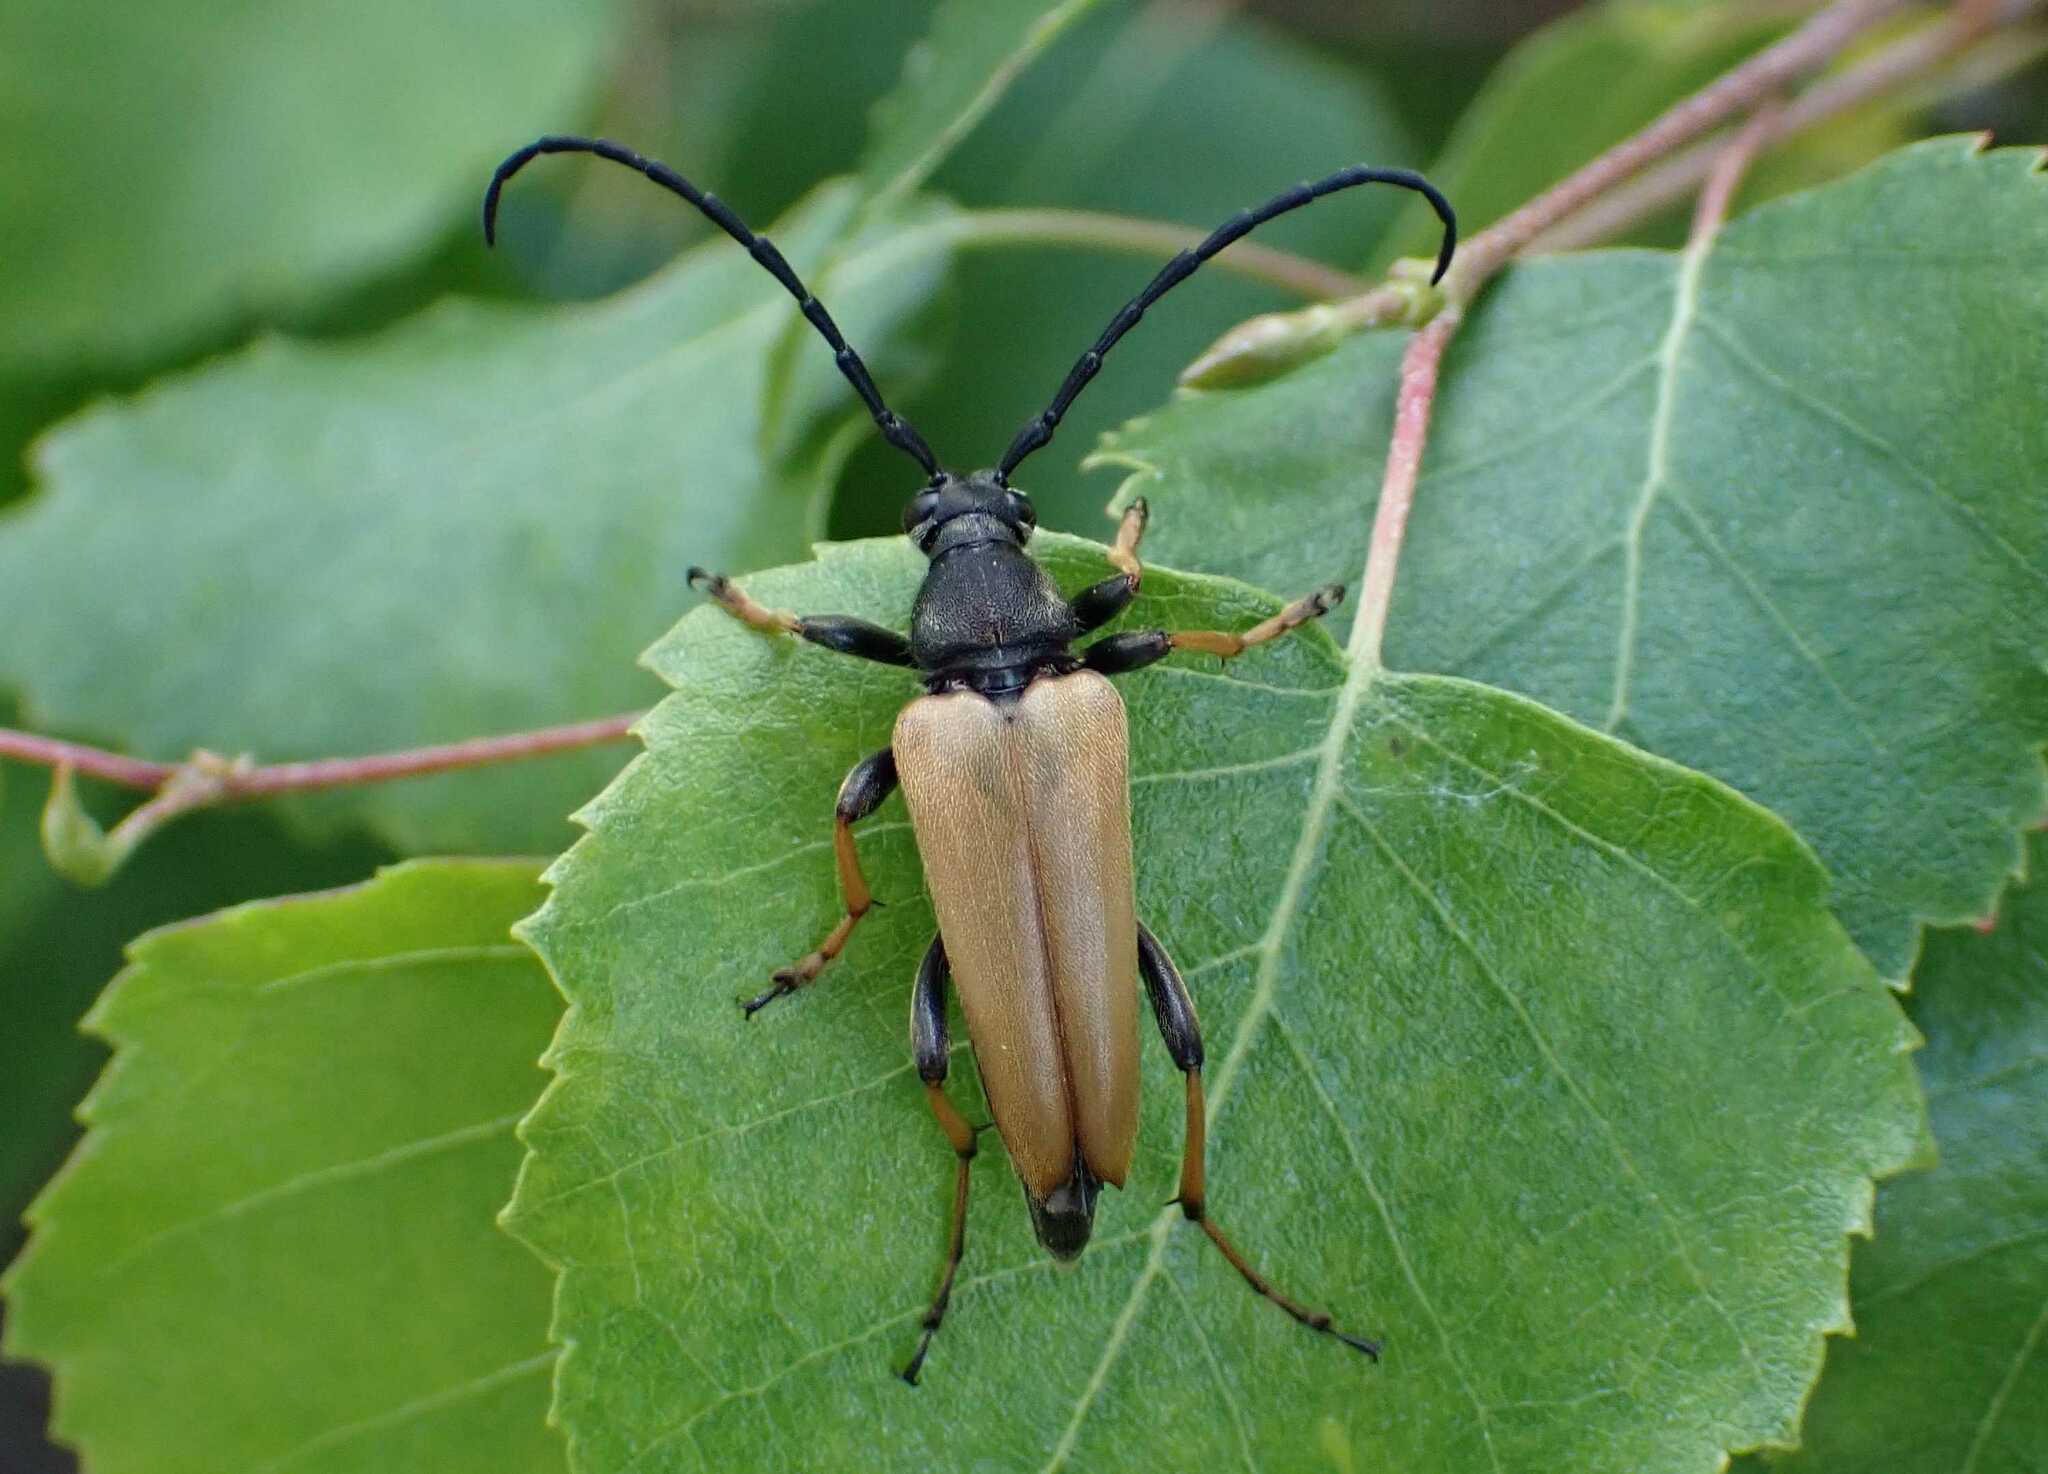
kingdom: Animalia
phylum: Arthropoda
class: Insecta
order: Coleoptera
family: Cerambycidae
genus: Stictoleptura
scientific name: Stictoleptura rubra
